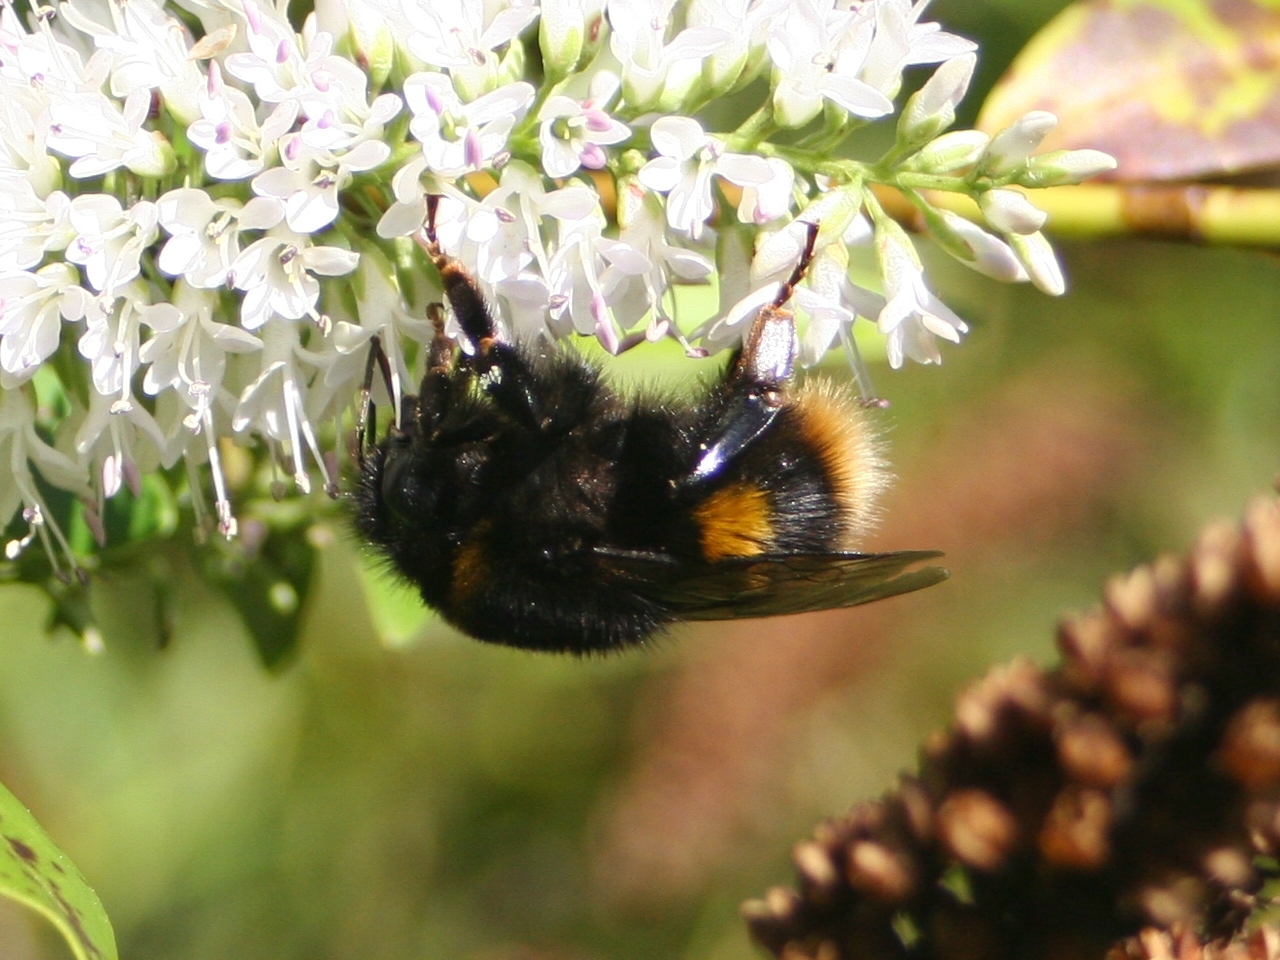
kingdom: Animalia
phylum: Arthropoda
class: Insecta
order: Hymenoptera
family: Apidae
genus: Bombus
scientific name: Bombus terrestris
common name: Buff-tailed bumblebee
